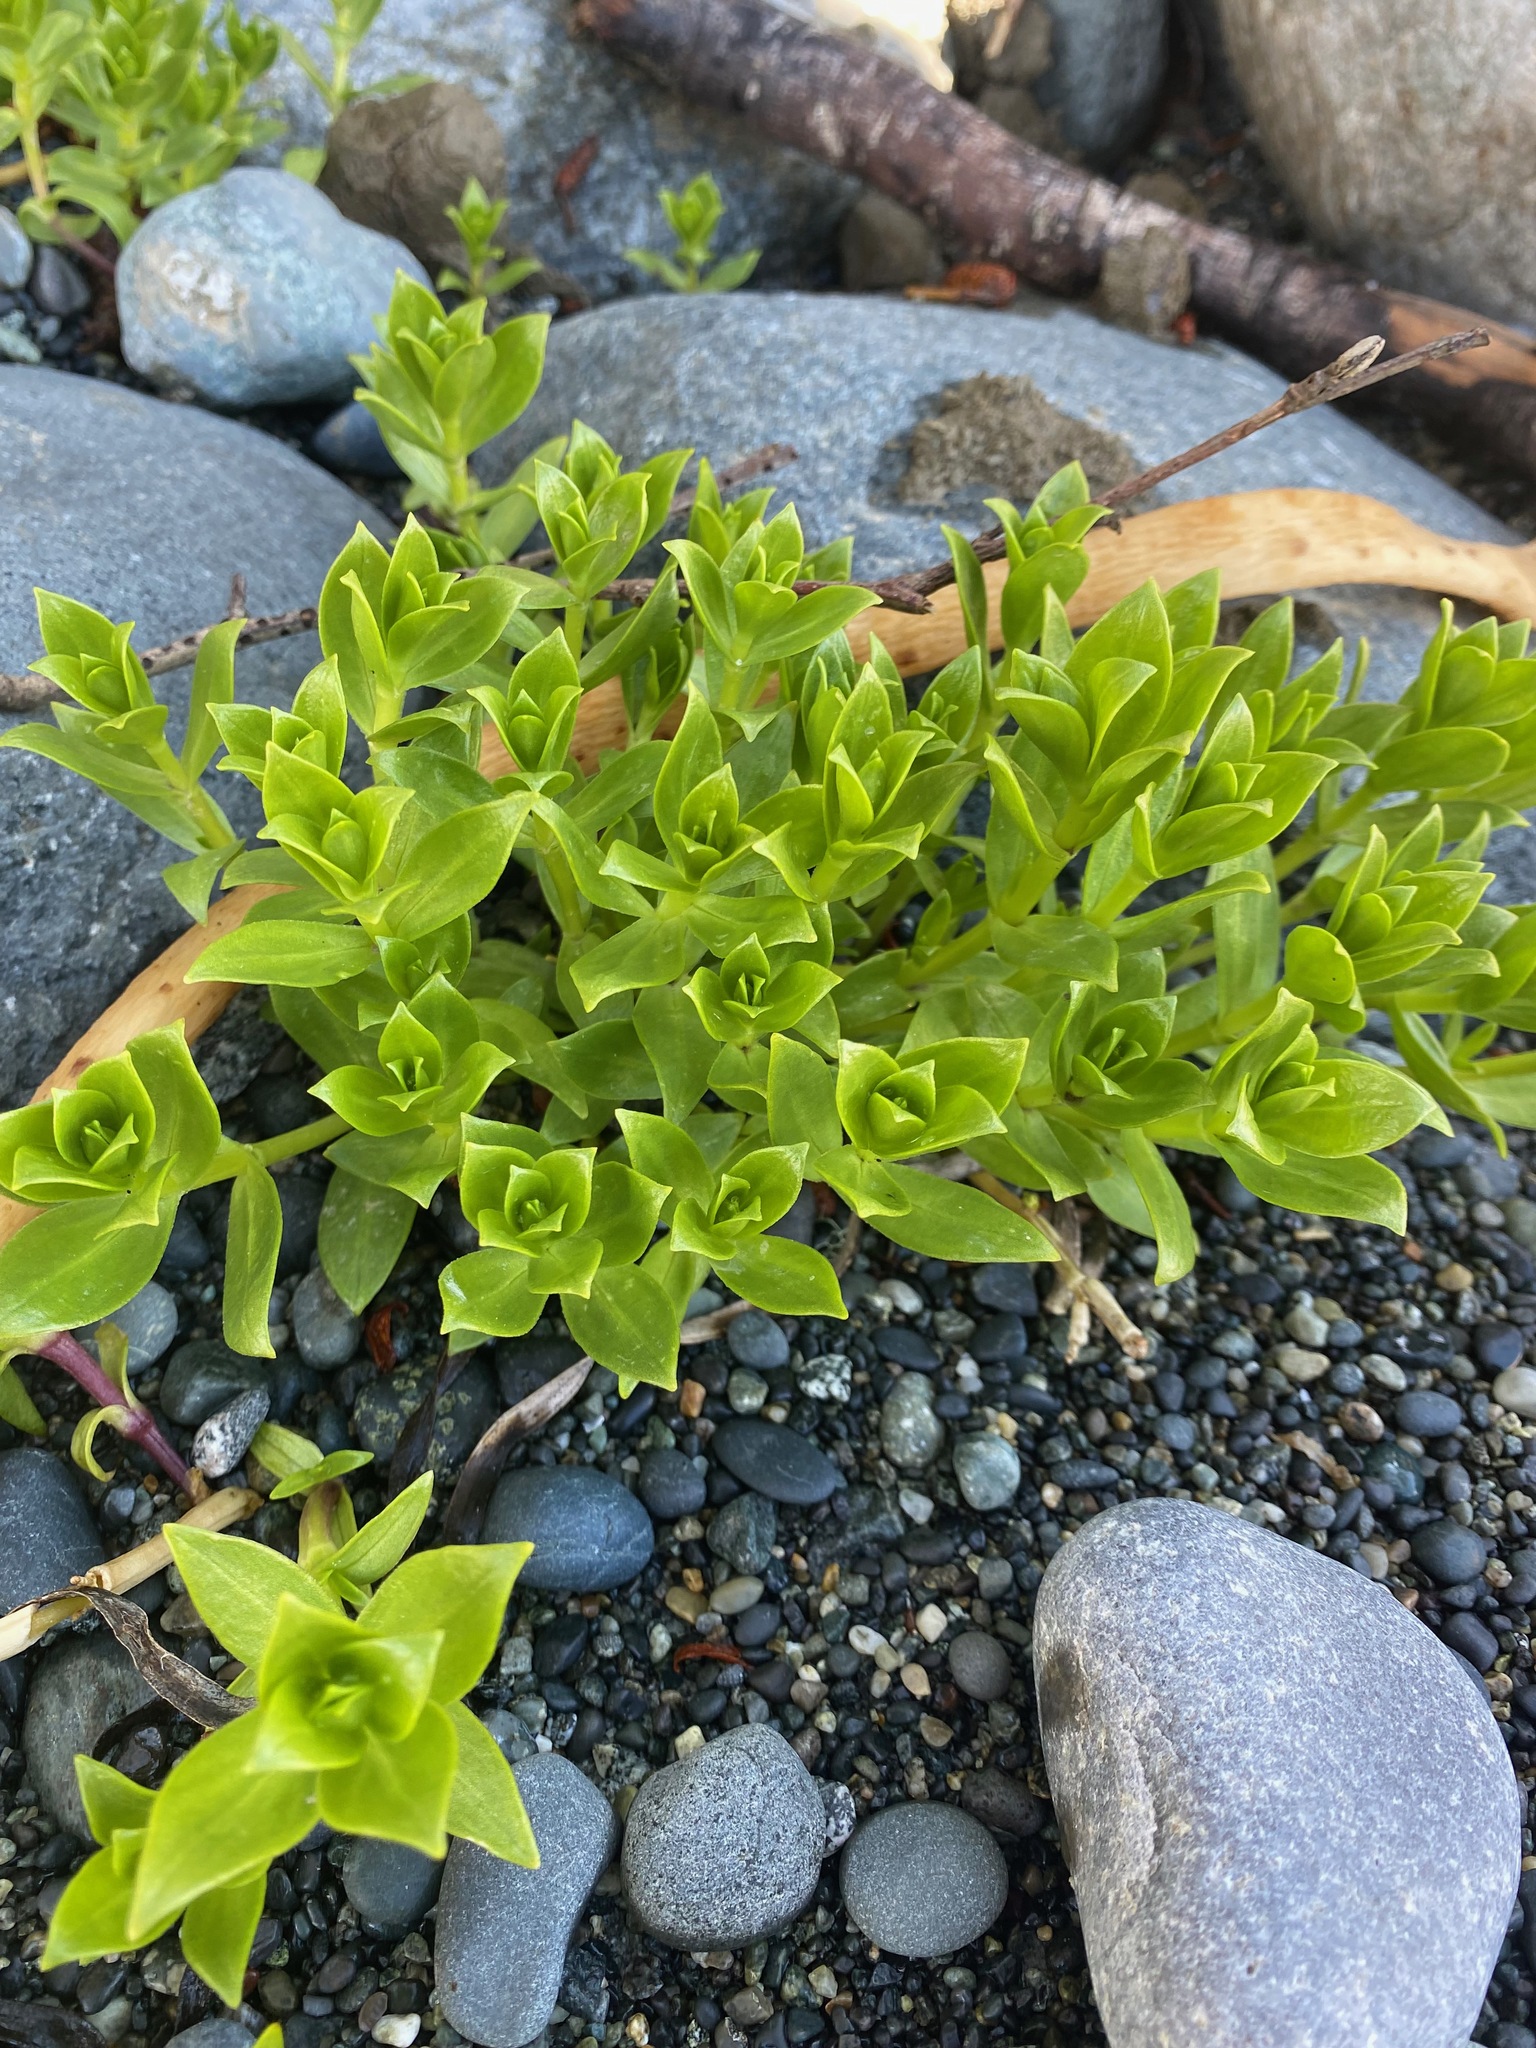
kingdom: Plantae
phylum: Tracheophyta
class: Magnoliopsida
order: Caryophyllales
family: Caryophyllaceae
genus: Honckenya
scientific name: Honckenya peploides
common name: Sea sandwort
